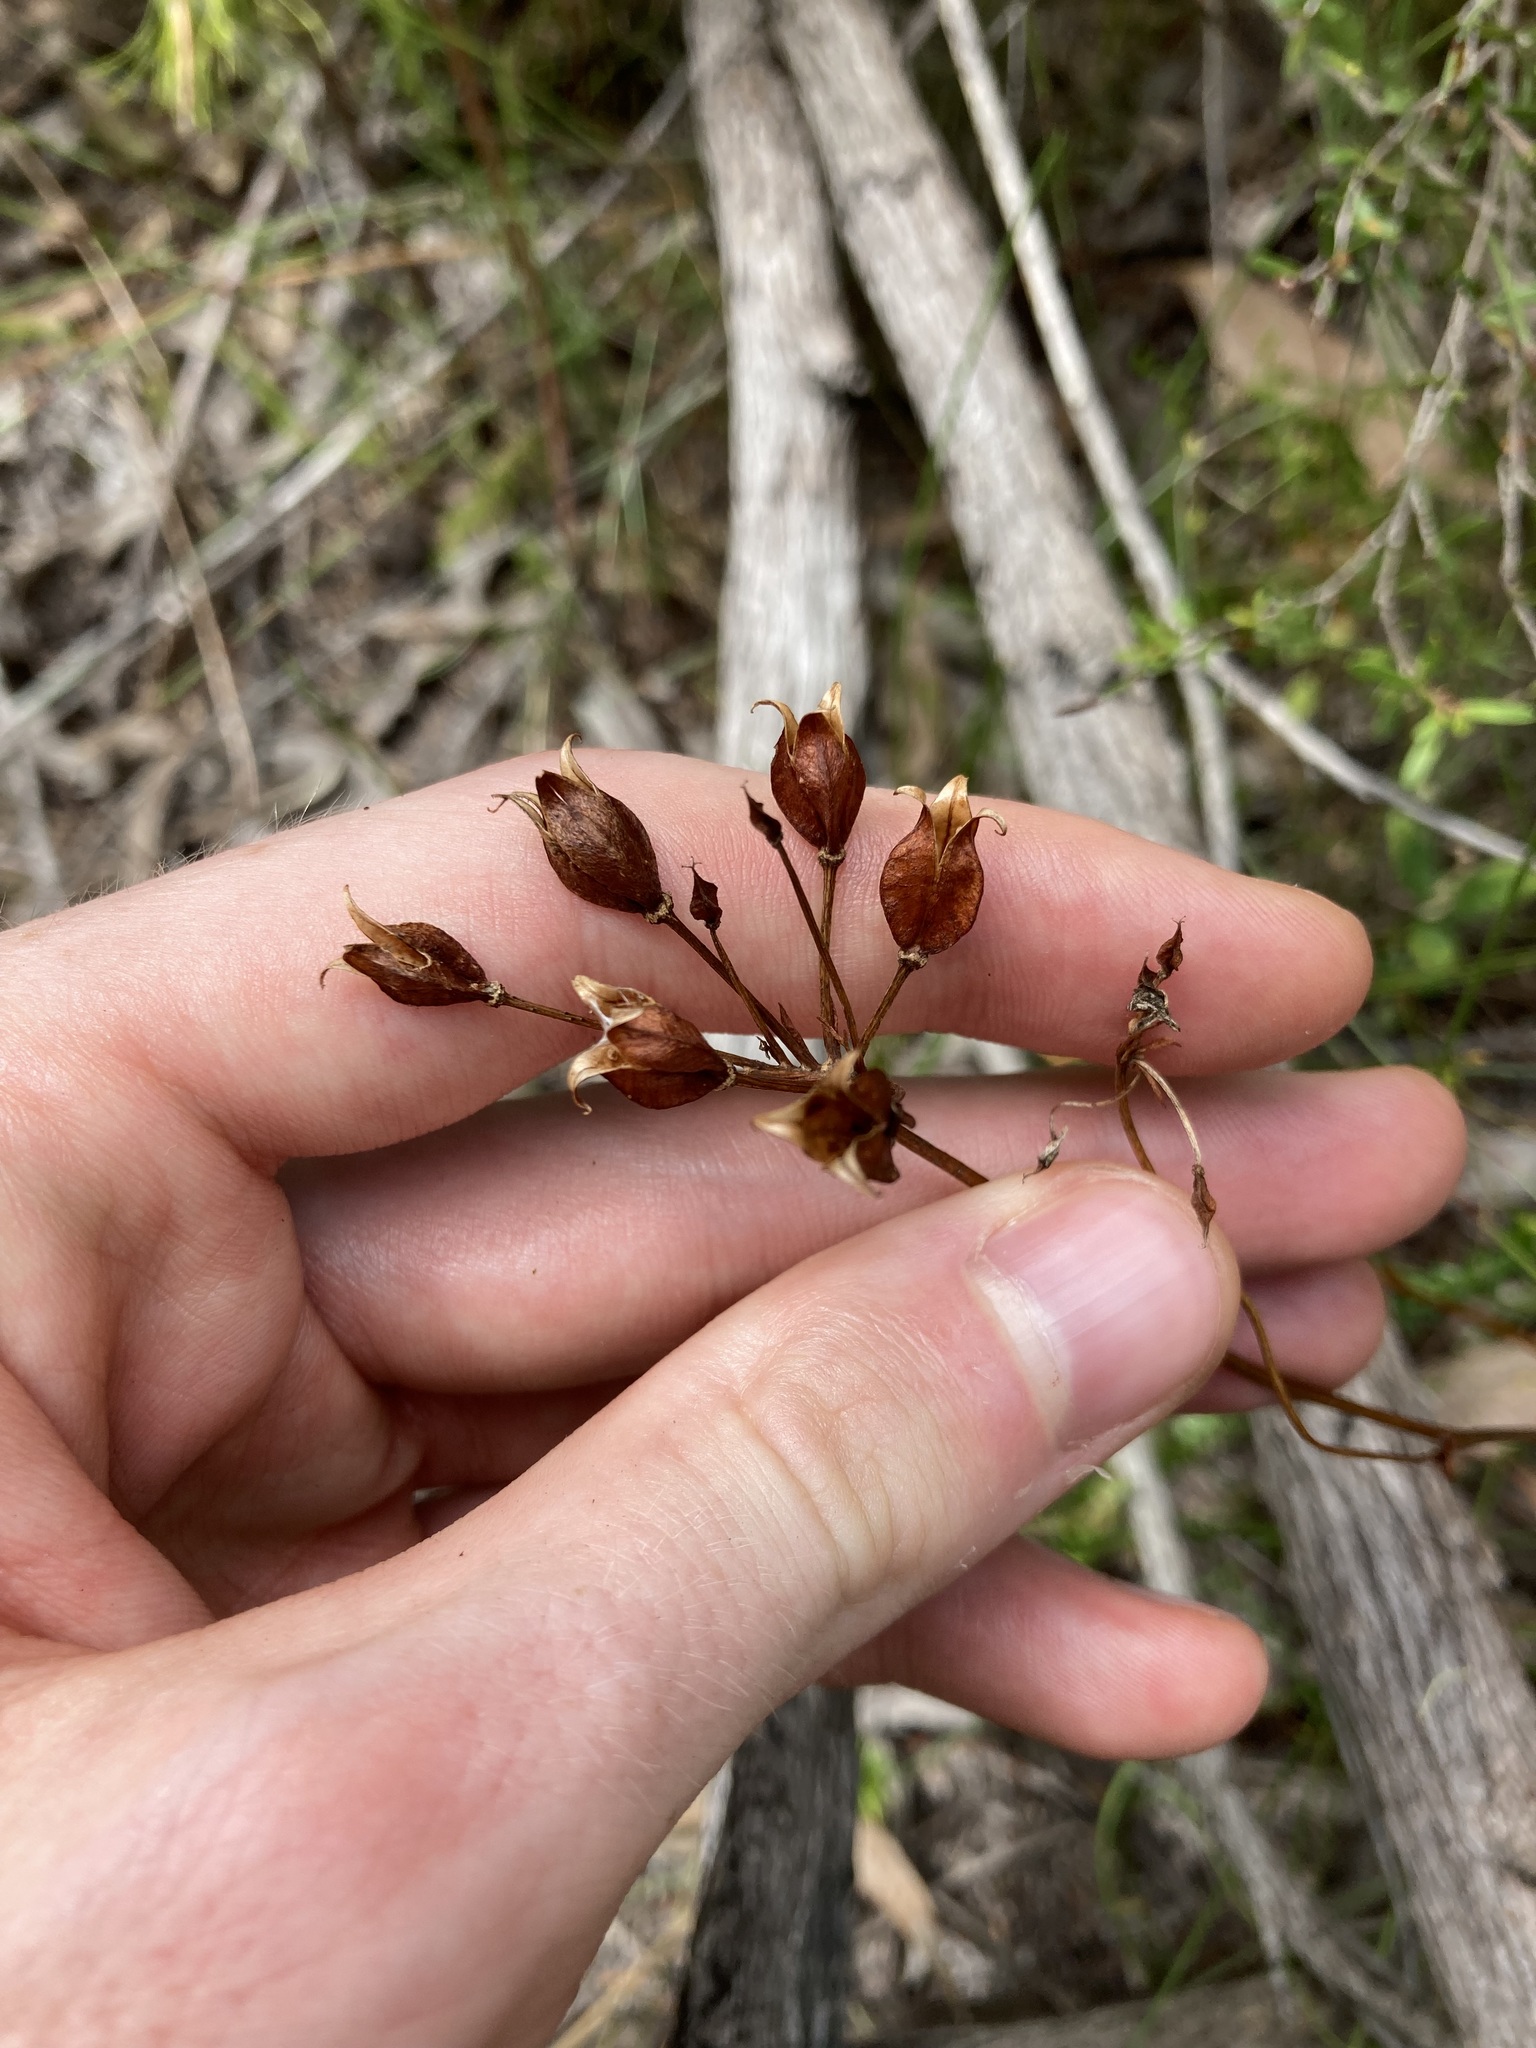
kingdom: Plantae
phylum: Tracheophyta
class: Liliopsida
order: Liliales
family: Colchicaceae
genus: Burchardia
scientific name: Burchardia umbellata
